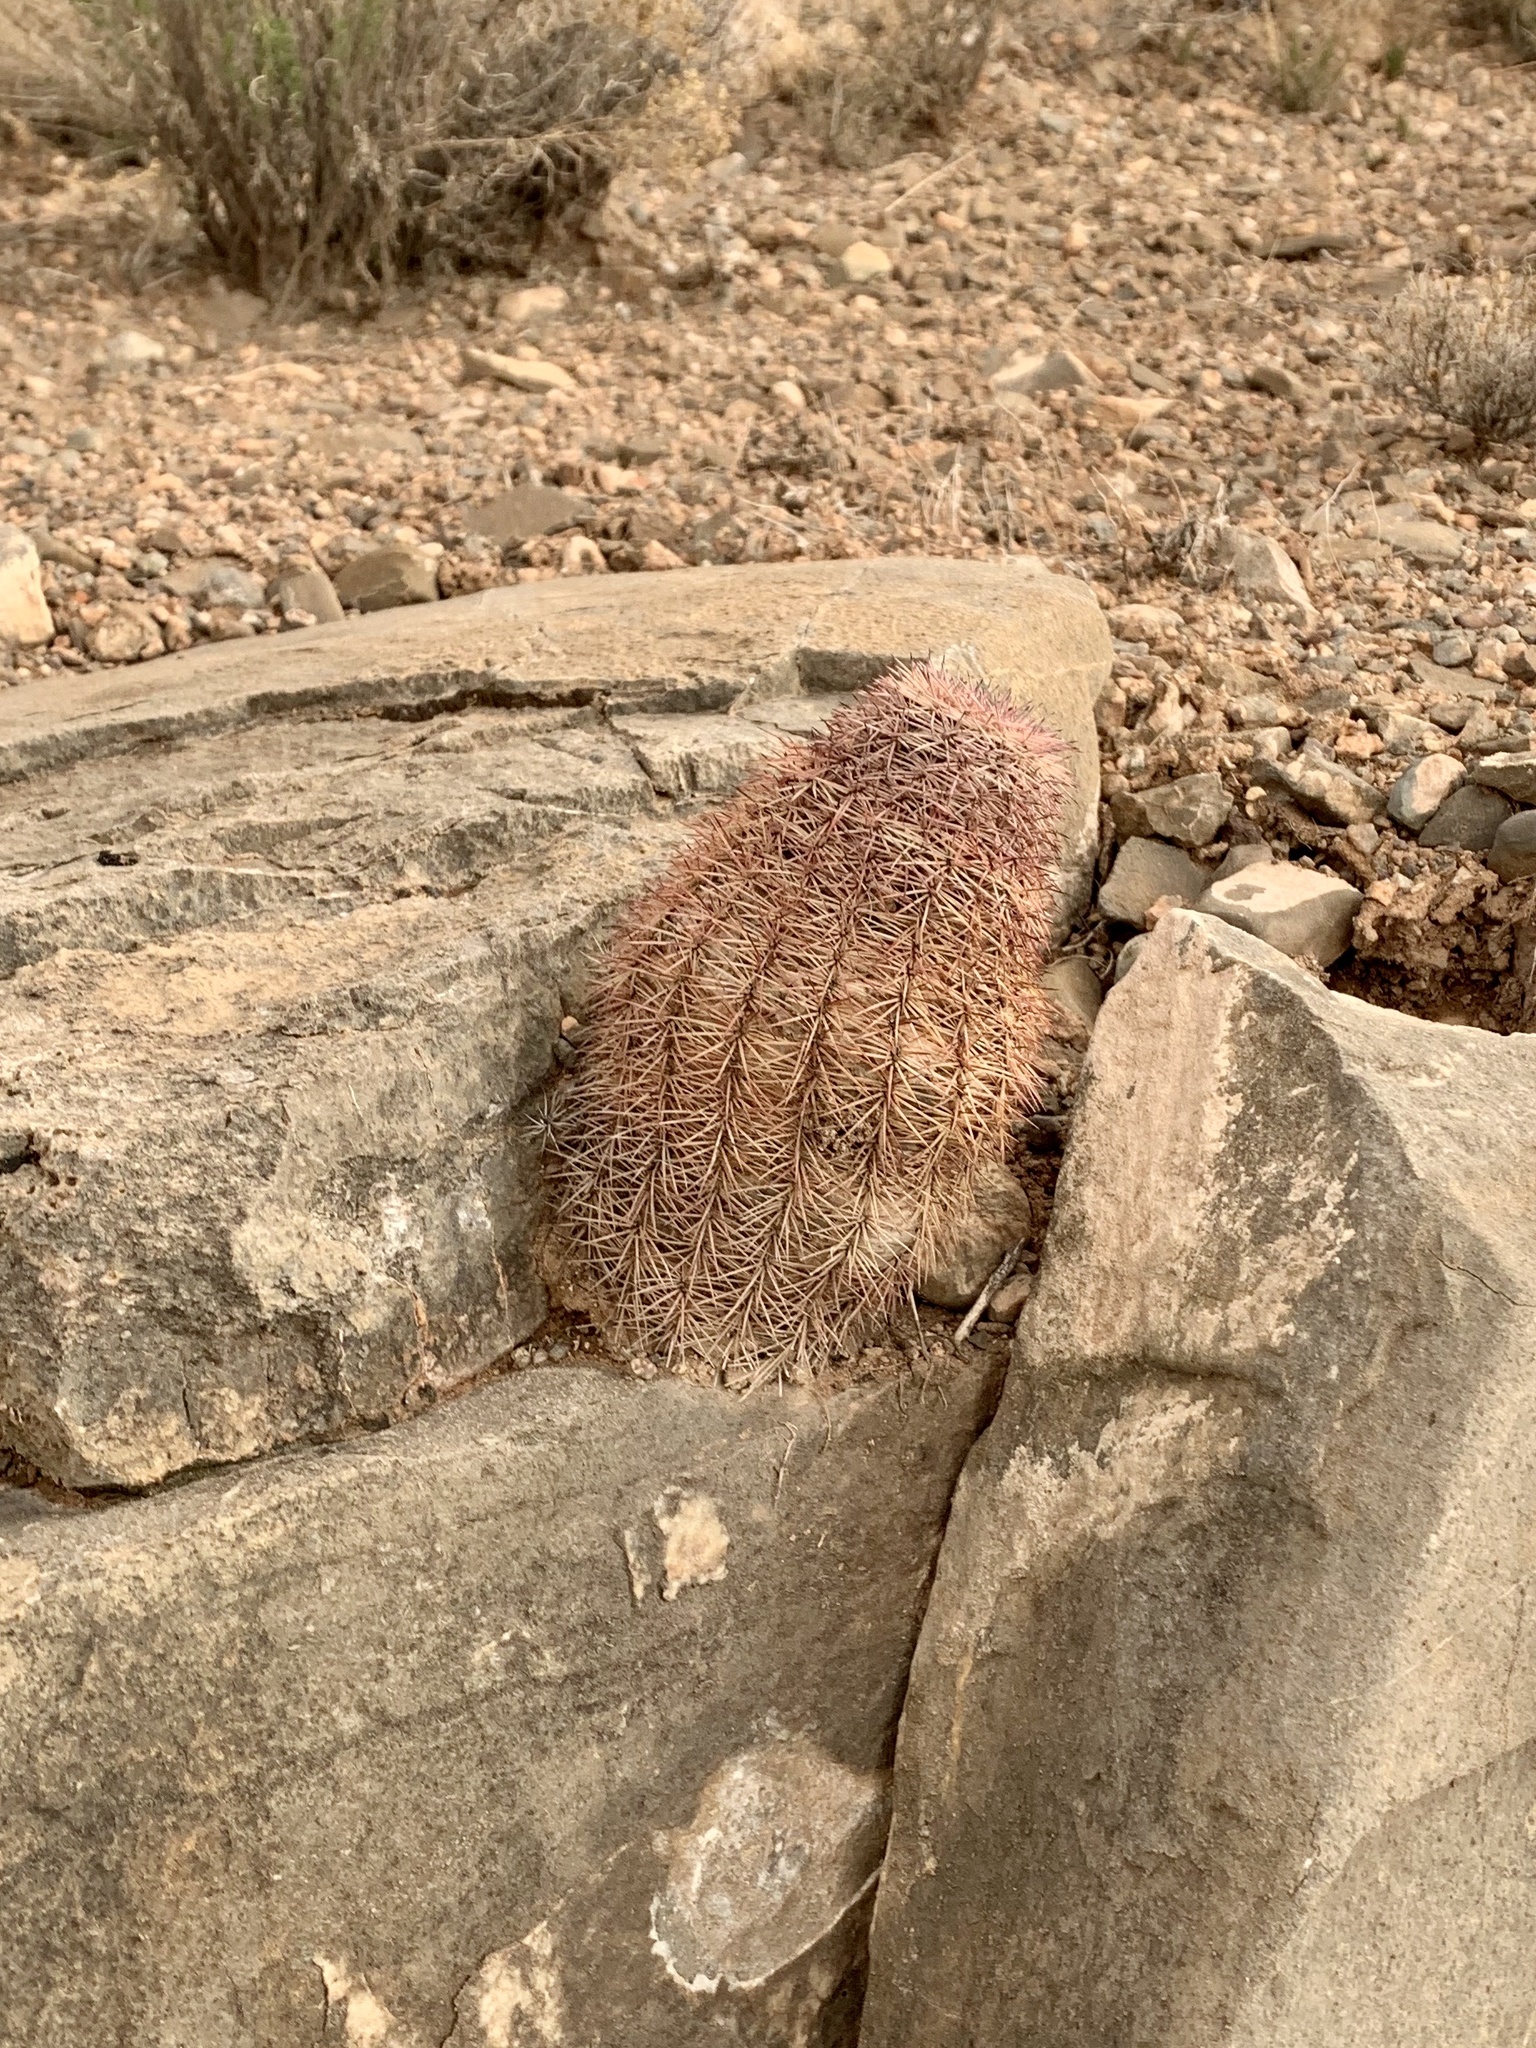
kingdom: Plantae
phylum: Tracheophyta
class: Magnoliopsida
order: Caryophyllales
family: Cactaceae
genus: Echinocereus
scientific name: Echinocereus dasyacanthus
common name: Spiny hedgehog cactus
